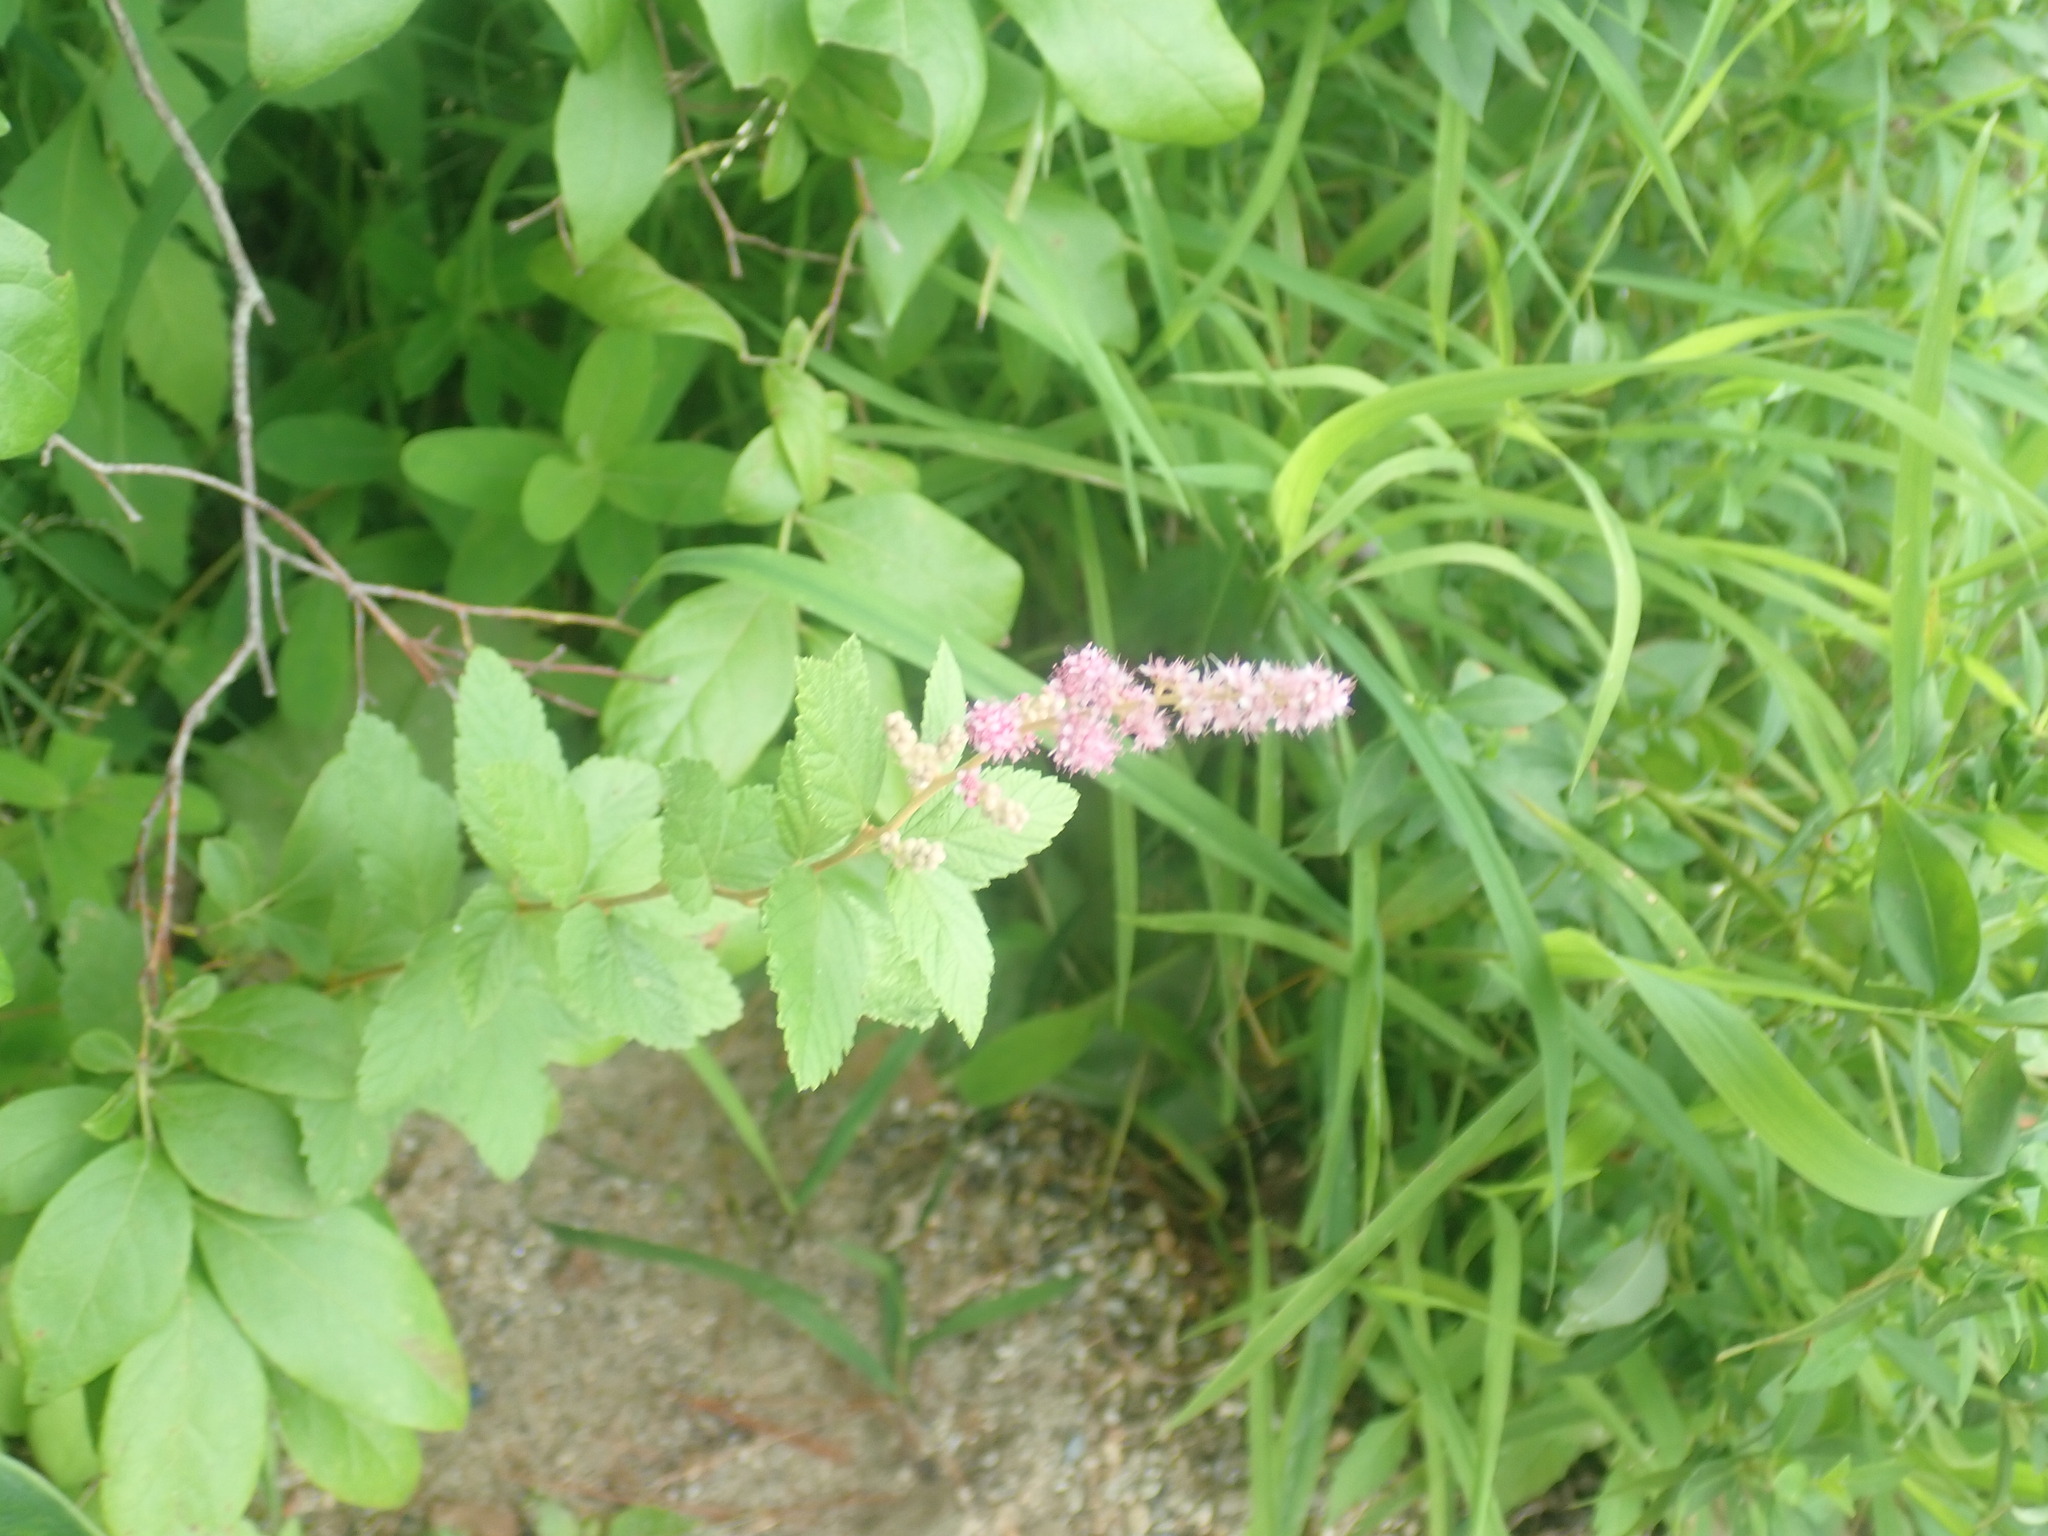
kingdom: Plantae
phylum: Tracheophyta
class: Magnoliopsida
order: Rosales
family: Rosaceae
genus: Spiraea
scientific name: Spiraea tomentosa
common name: Hardhack
